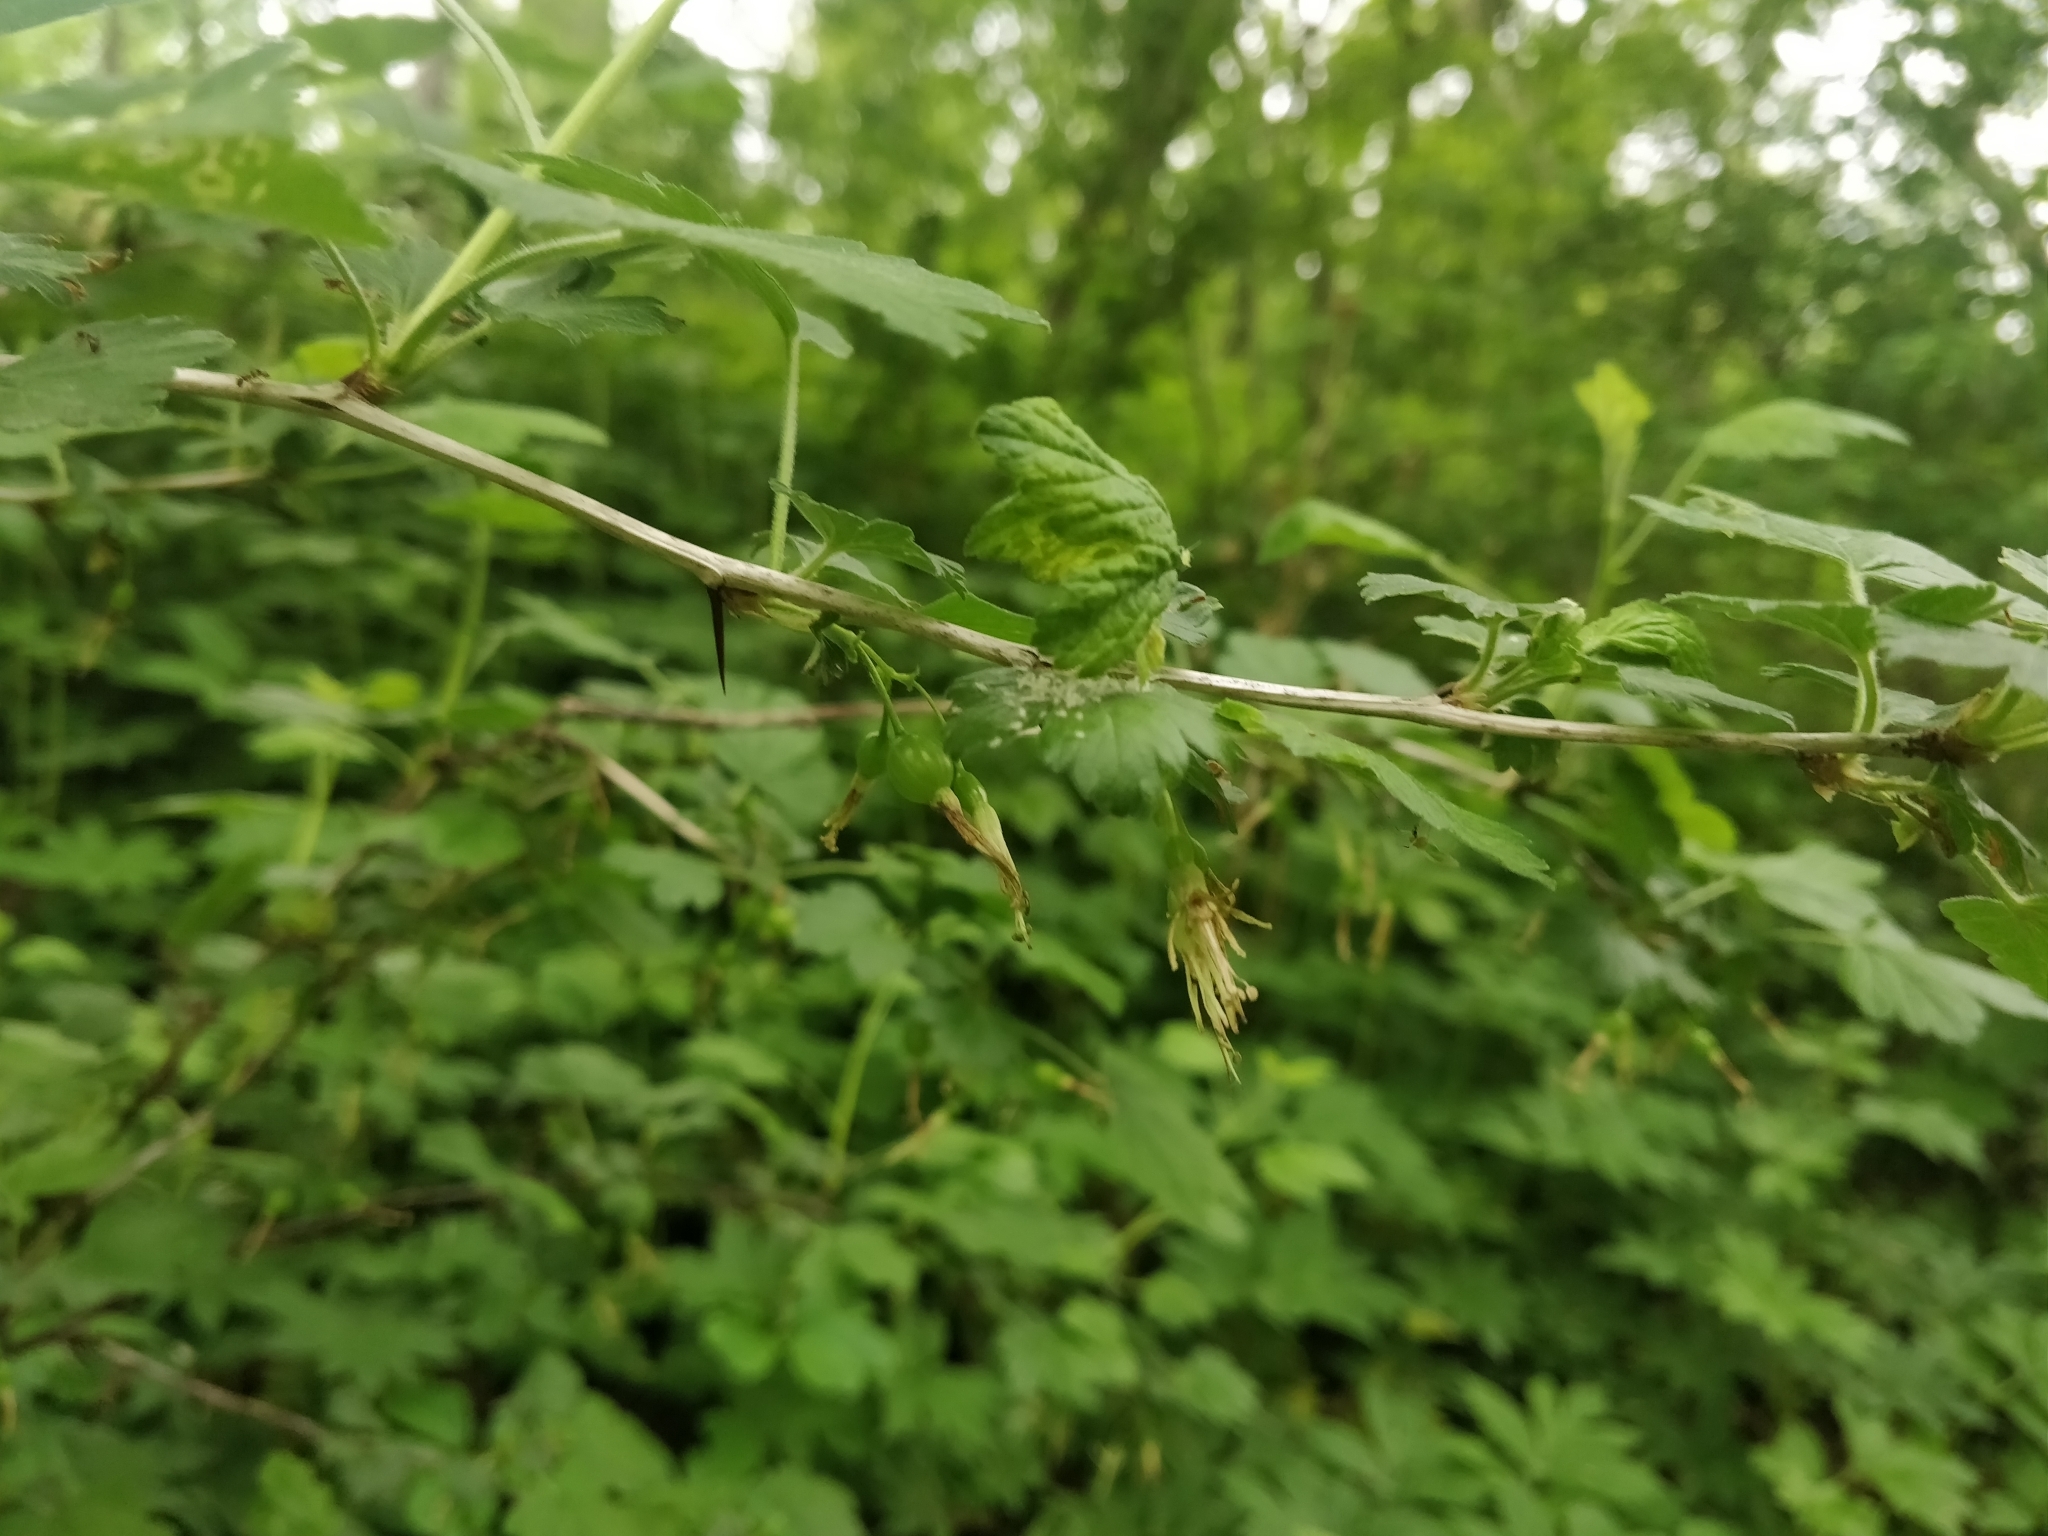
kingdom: Plantae
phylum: Tracheophyta
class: Magnoliopsida
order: Saxifragales
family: Grossulariaceae
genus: Ribes
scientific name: Ribes missouriense
